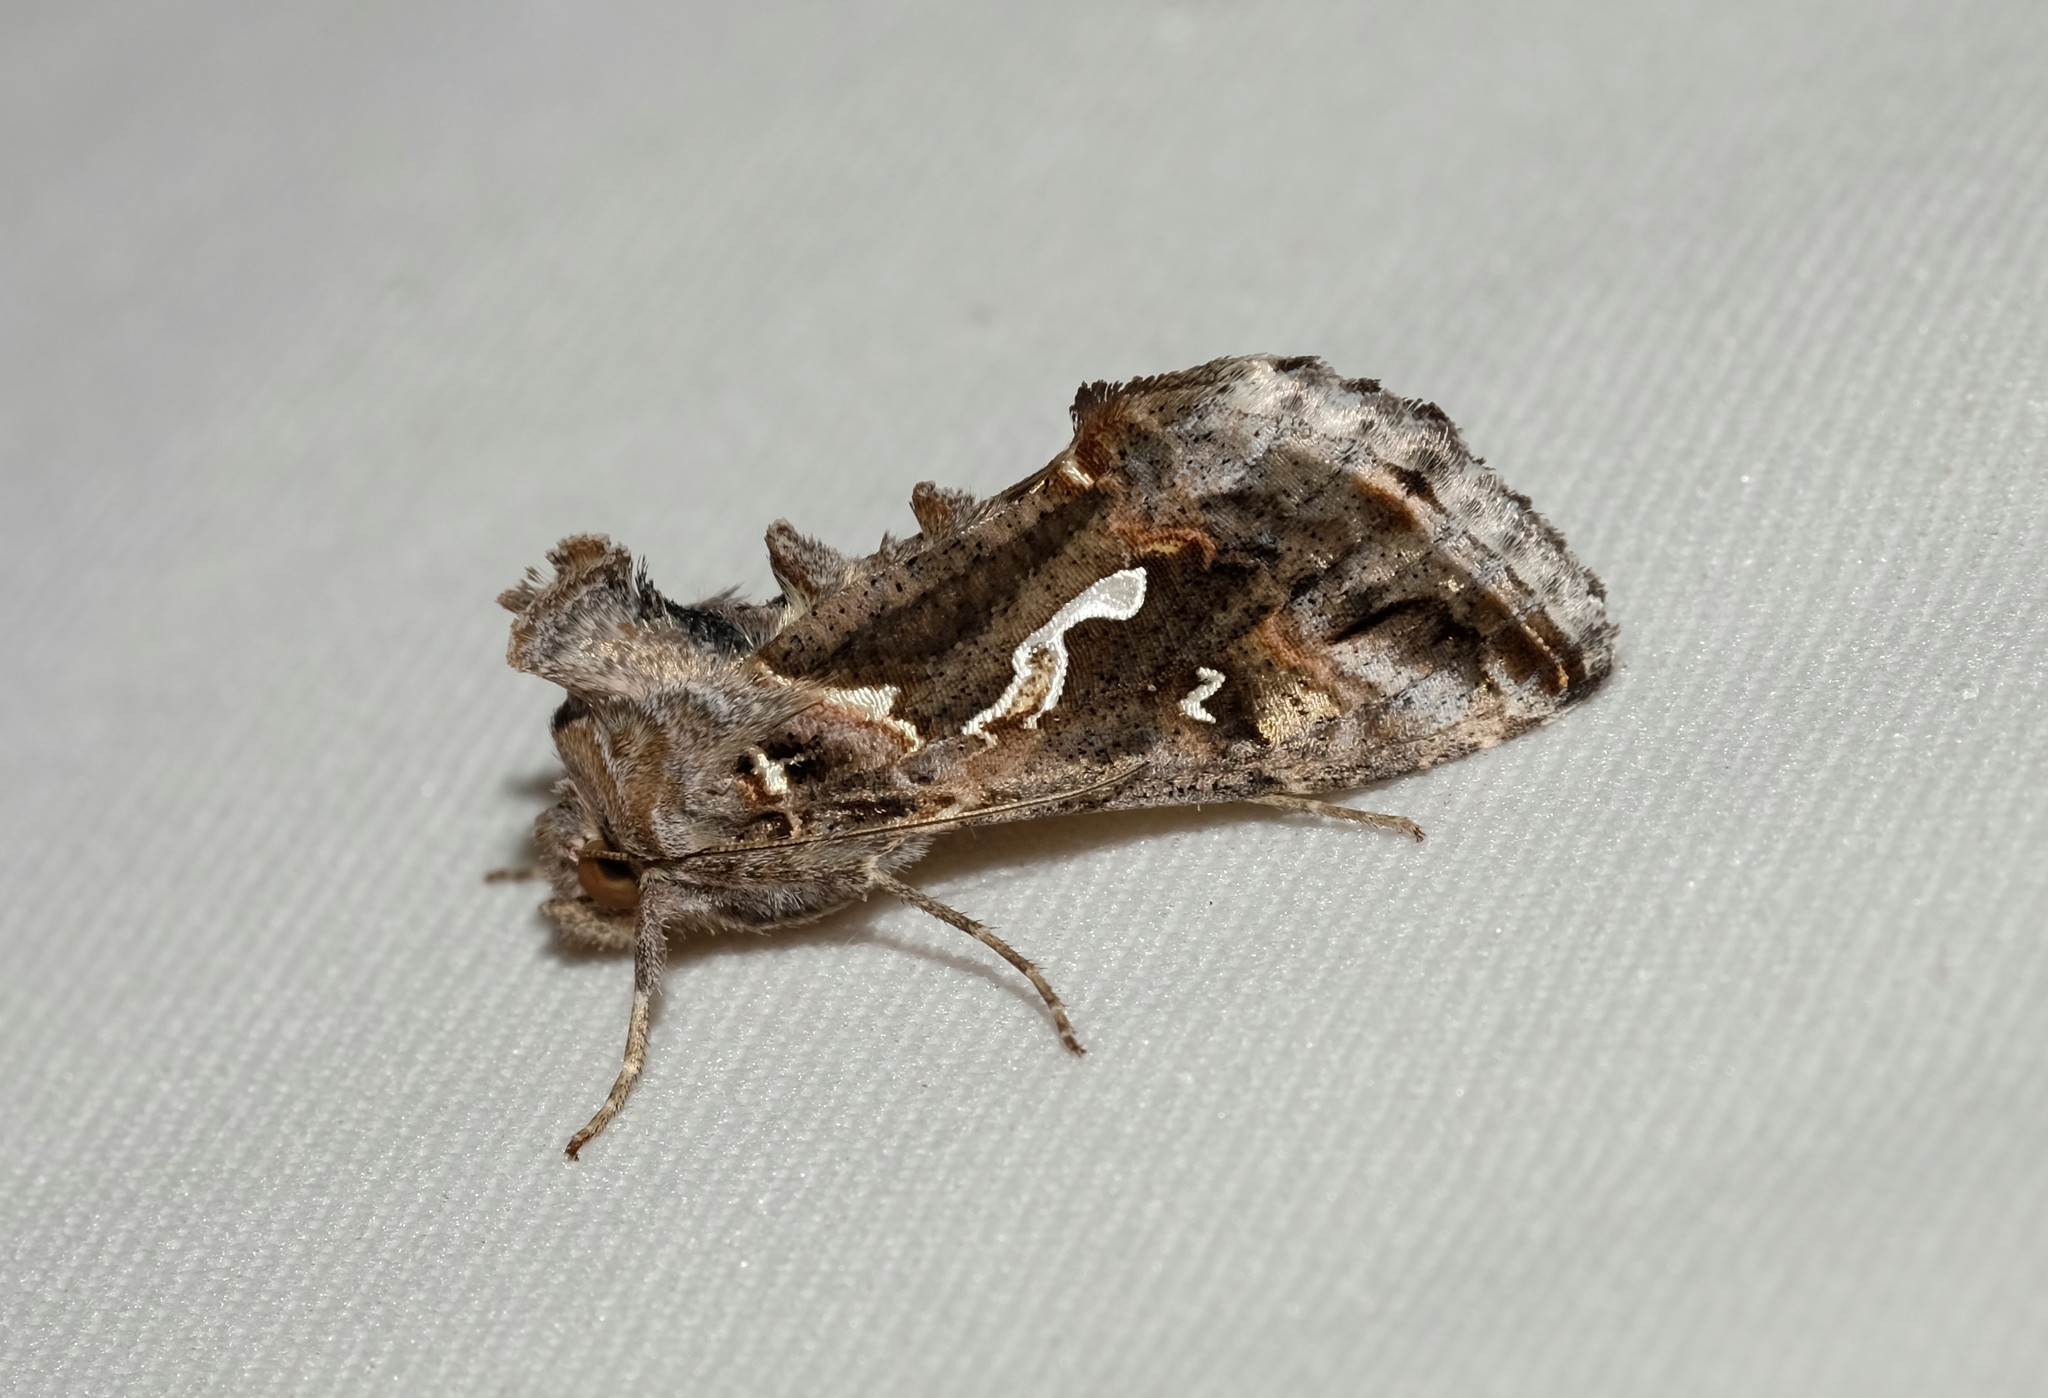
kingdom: Animalia
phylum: Arthropoda
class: Insecta
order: Lepidoptera
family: Noctuidae
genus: Chrysodeixis
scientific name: Chrysodeixis argentifera
